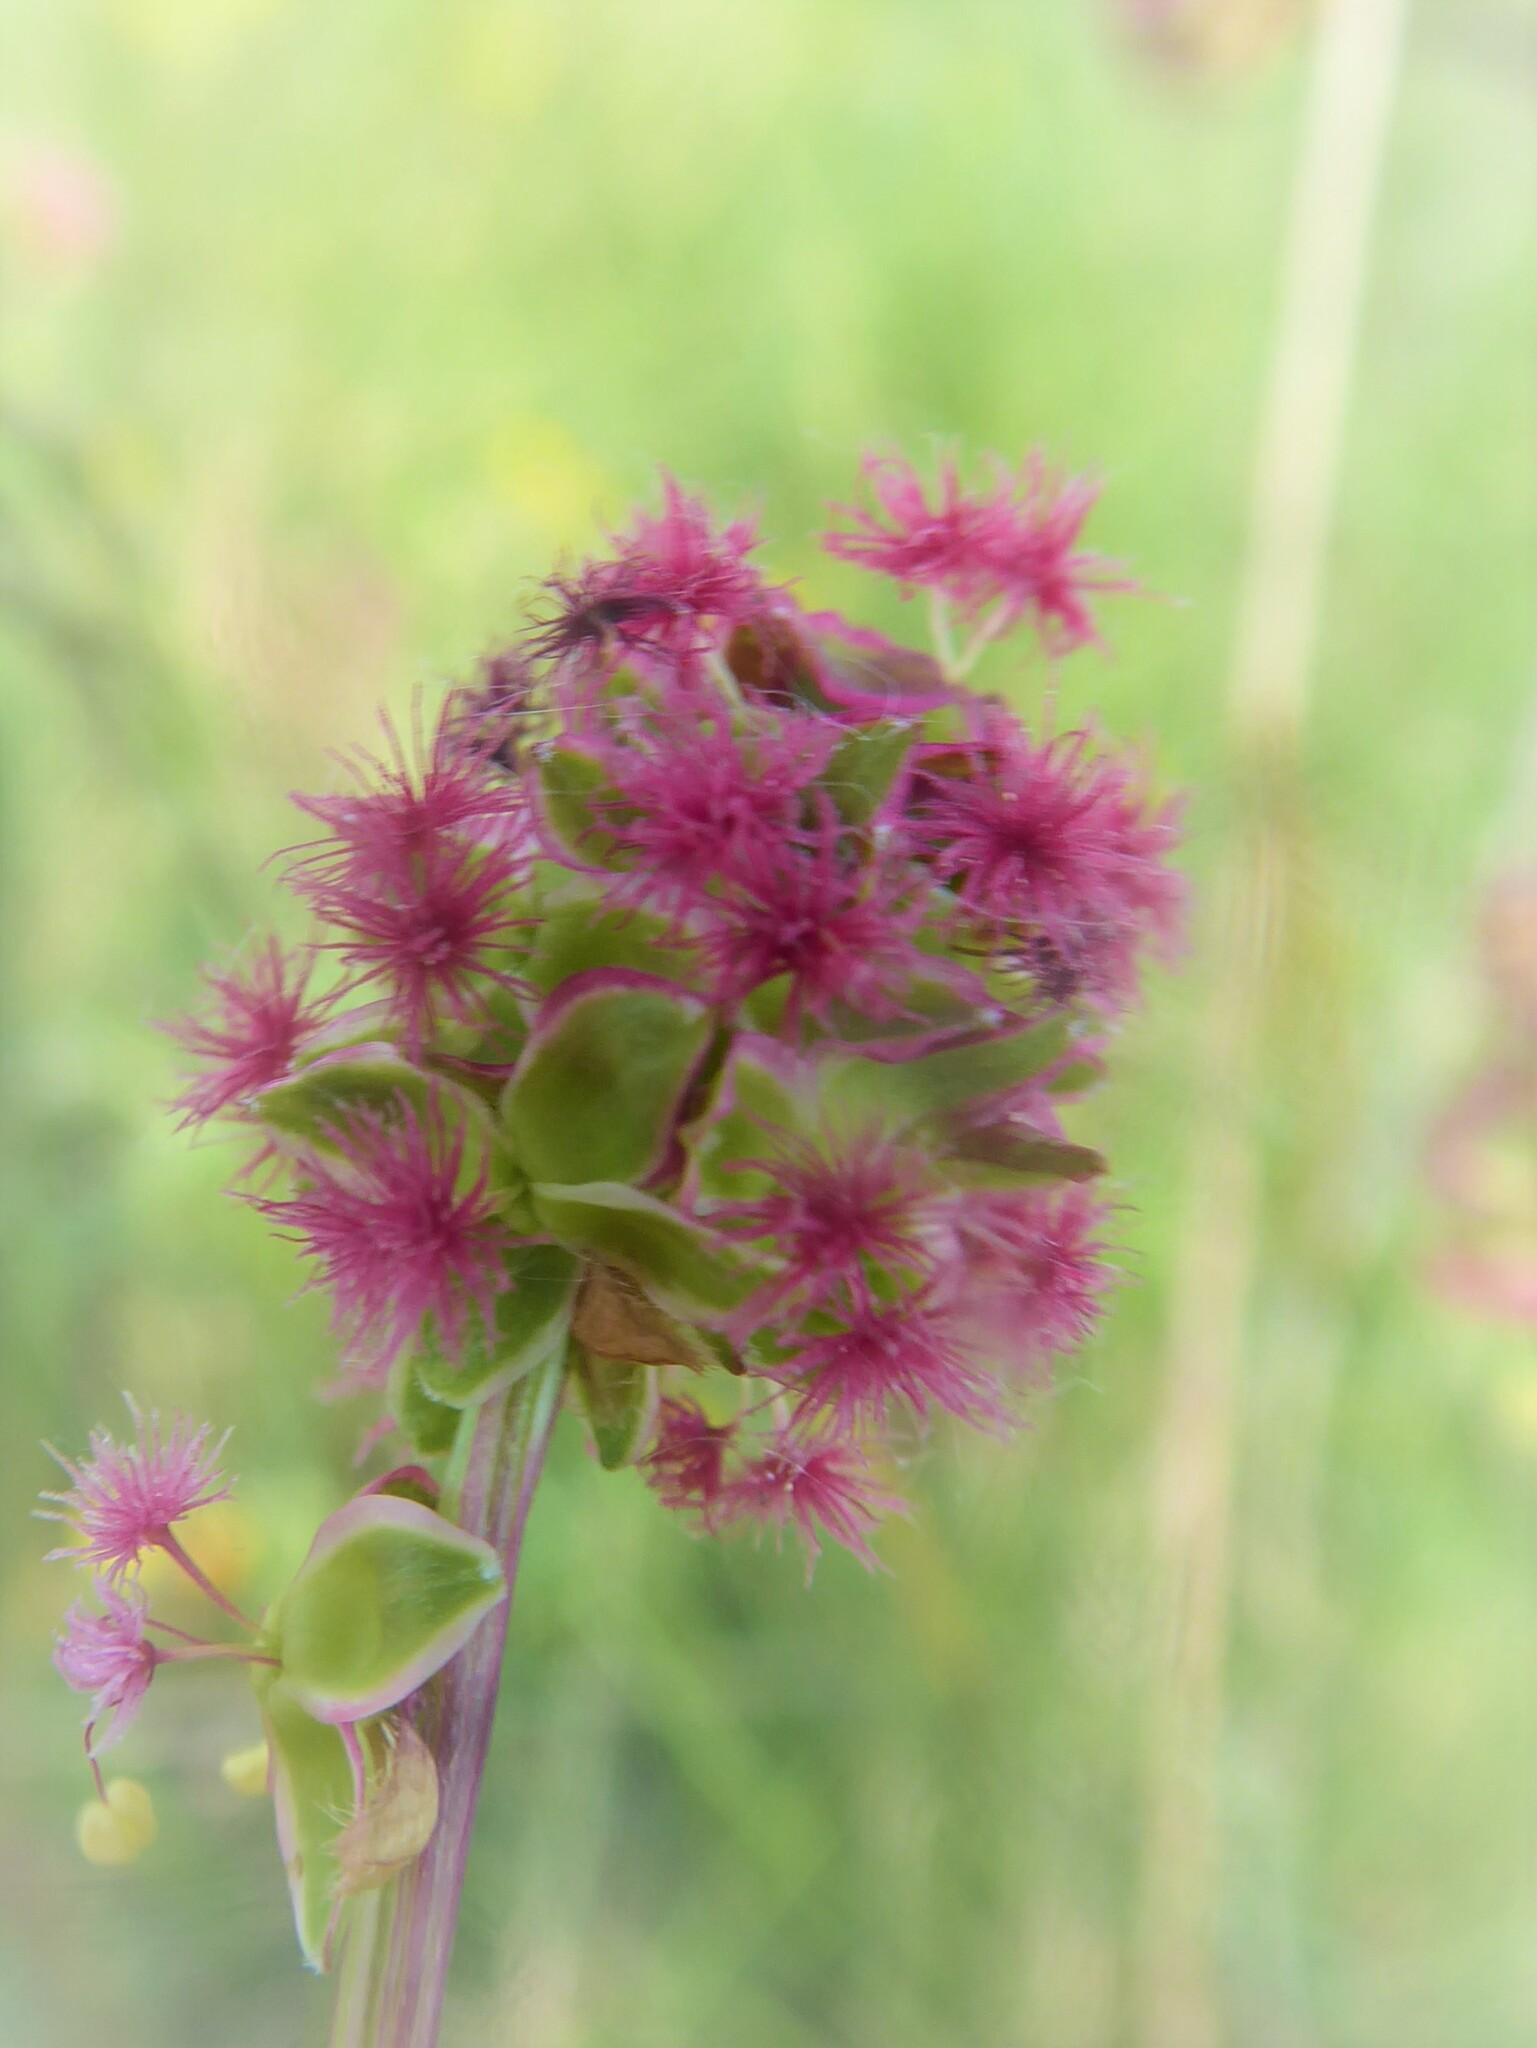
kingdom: Plantae
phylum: Tracheophyta
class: Magnoliopsida
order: Rosales
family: Rosaceae
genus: Poterium
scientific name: Poterium sanguisorba
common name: Salad burnet
